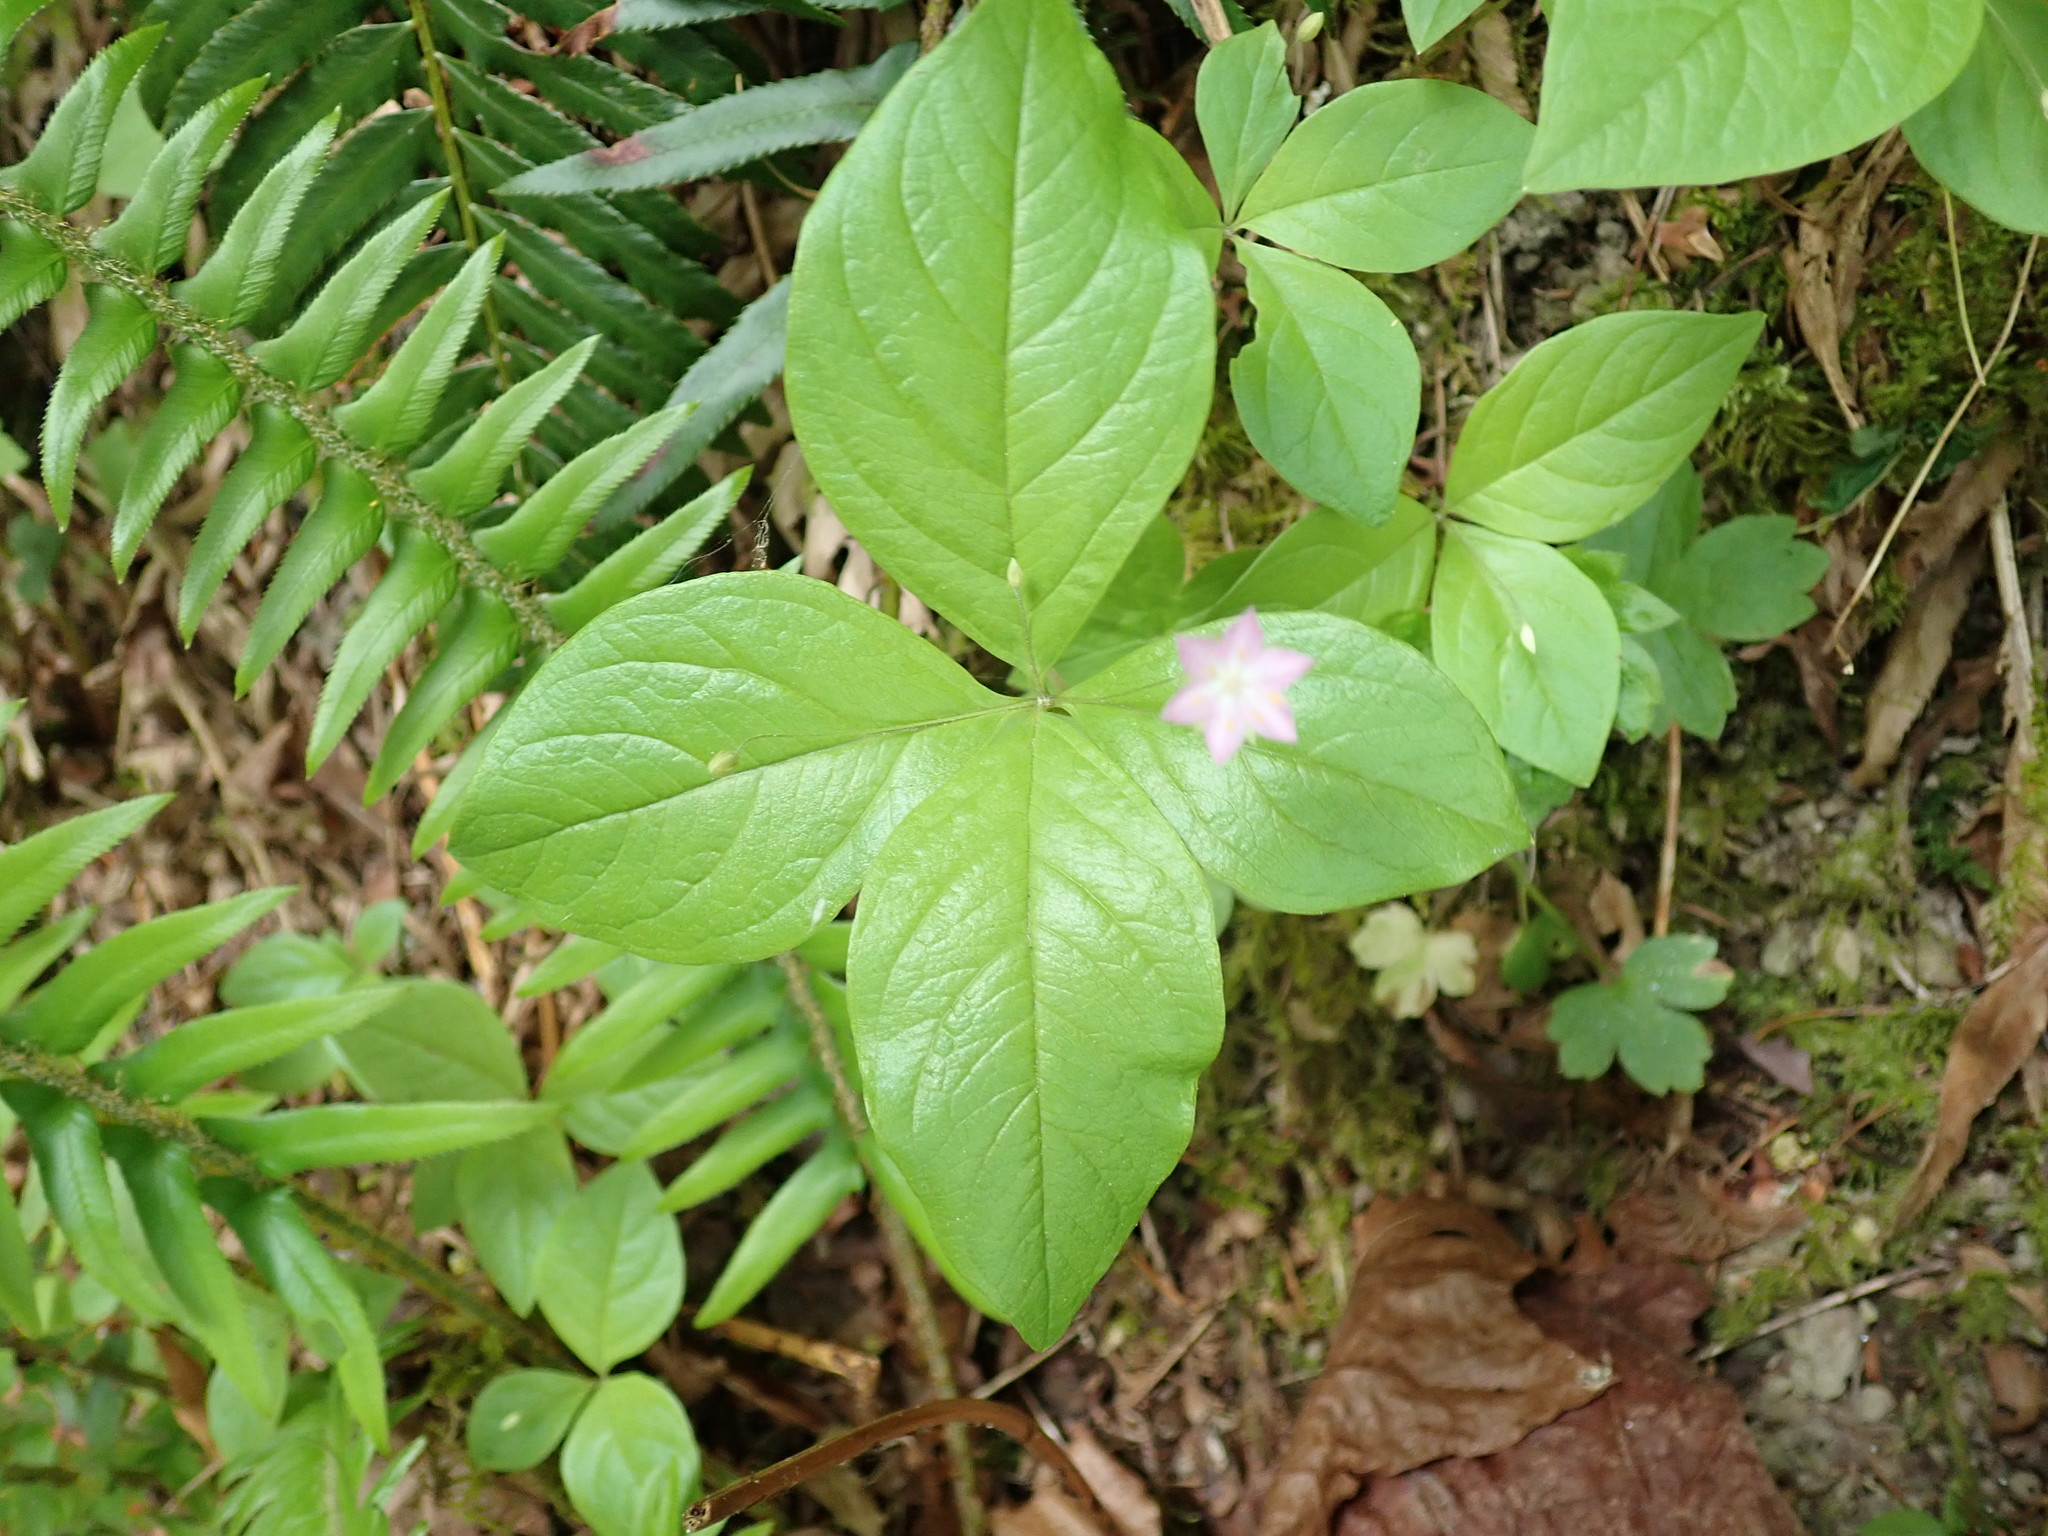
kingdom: Plantae
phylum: Tracheophyta
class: Magnoliopsida
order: Ericales
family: Primulaceae
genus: Lysimachia
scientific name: Lysimachia latifolia
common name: Pacific starflower
